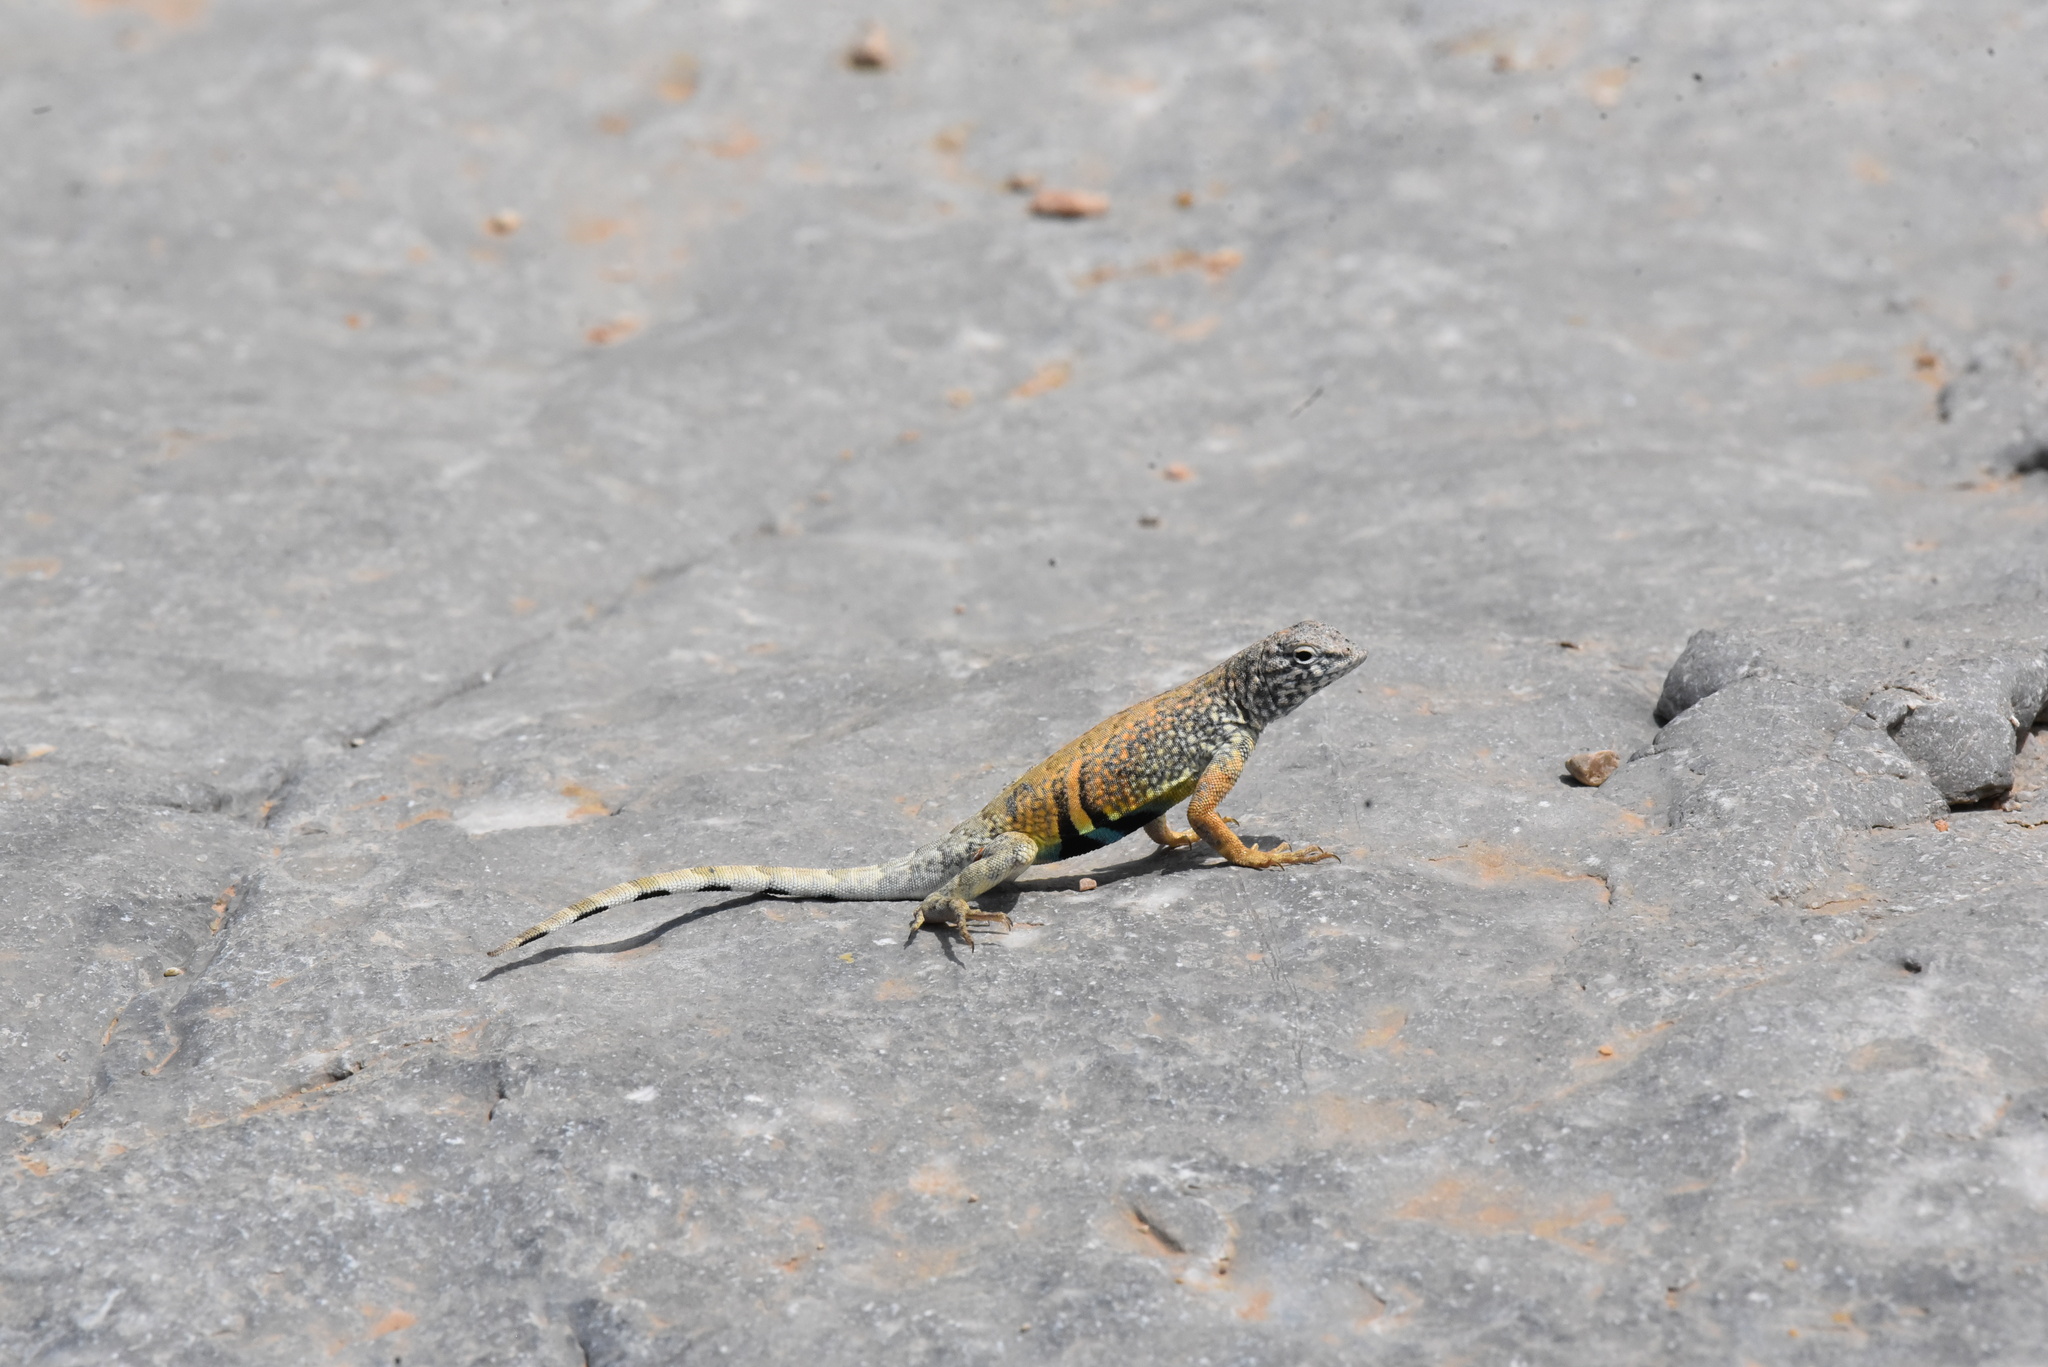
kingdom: Animalia
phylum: Chordata
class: Squamata
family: Phrynosomatidae
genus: Cophosaurus
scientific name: Cophosaurus texanus
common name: Greater earless lizard
